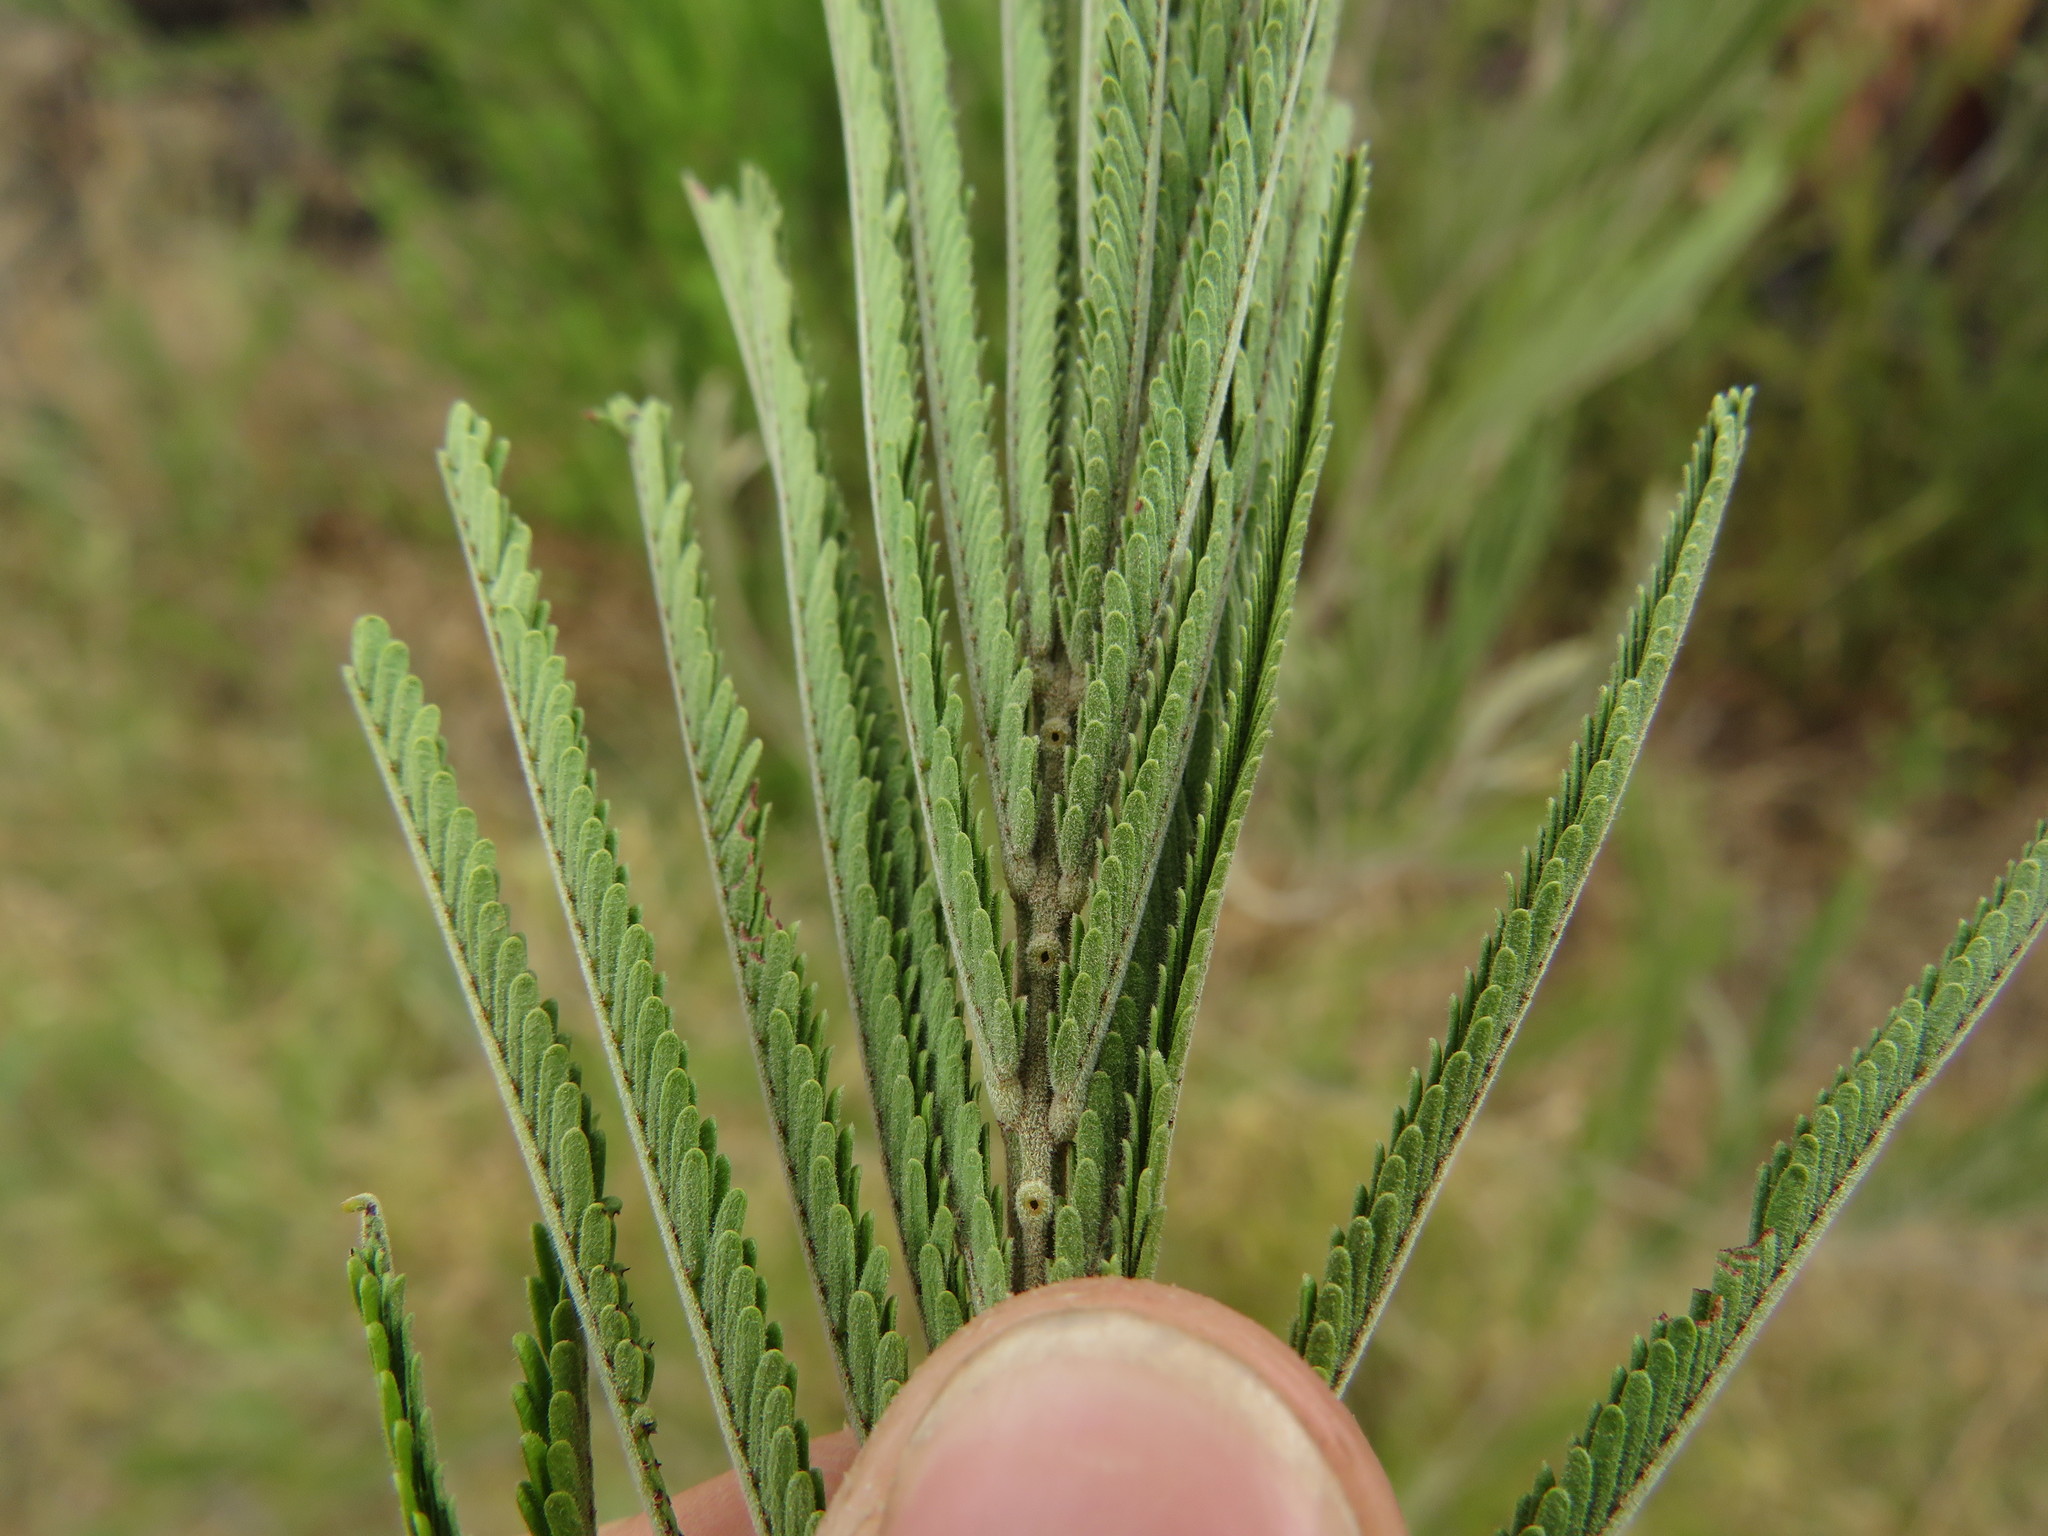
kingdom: Plantae
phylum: Tracheophyta
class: Magnoliopsida
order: Fabales
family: Fabaceae
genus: Acacia
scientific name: Acacia mearnsii
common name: Black wattle
